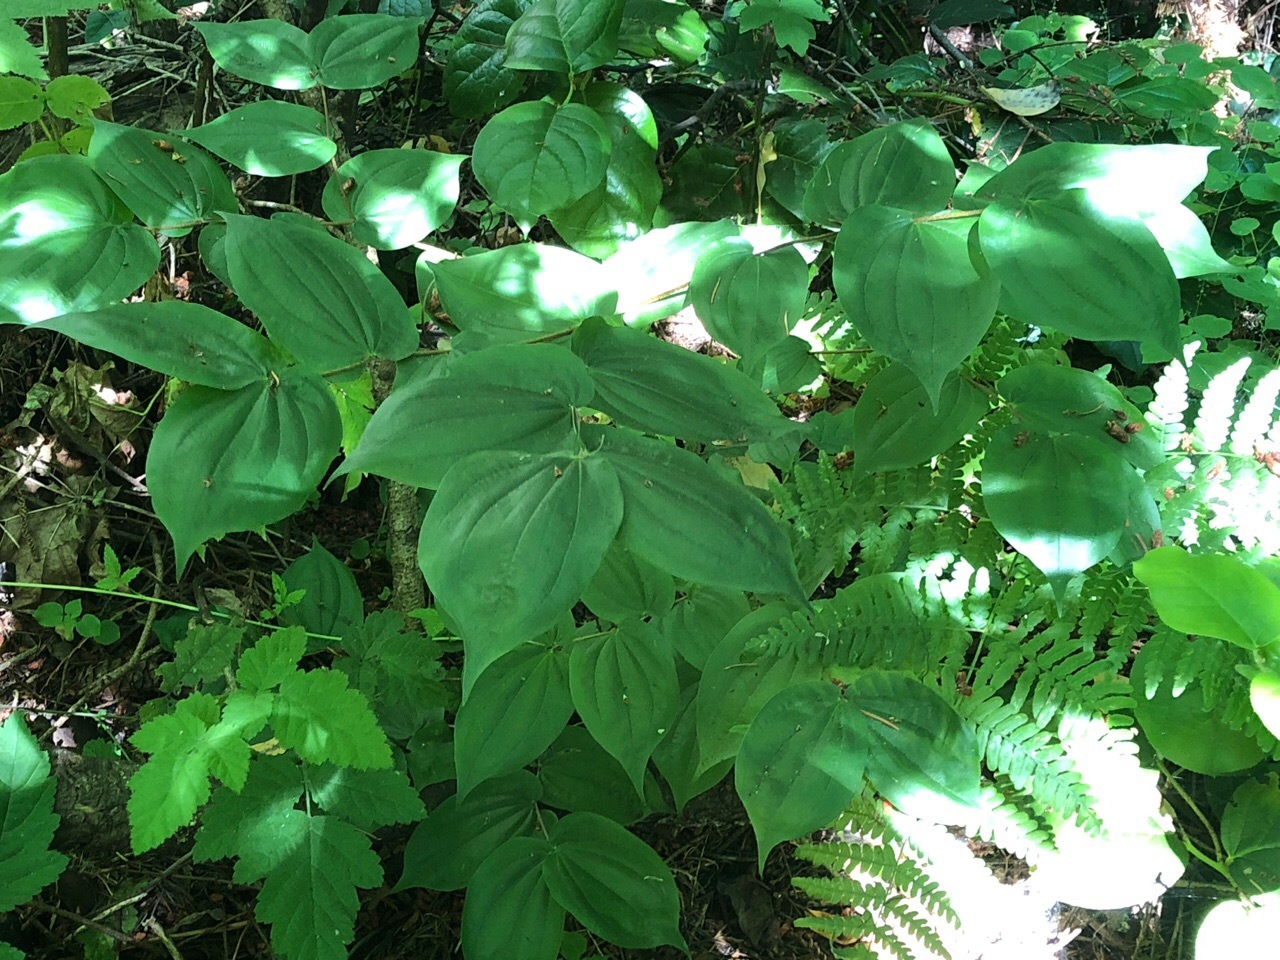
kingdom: Plantae
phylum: Tracheophyta
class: Liliopsida
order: Liliales
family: Liliaceae
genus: Prosartes
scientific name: Prosartes hookeri
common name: Fairy-bells
